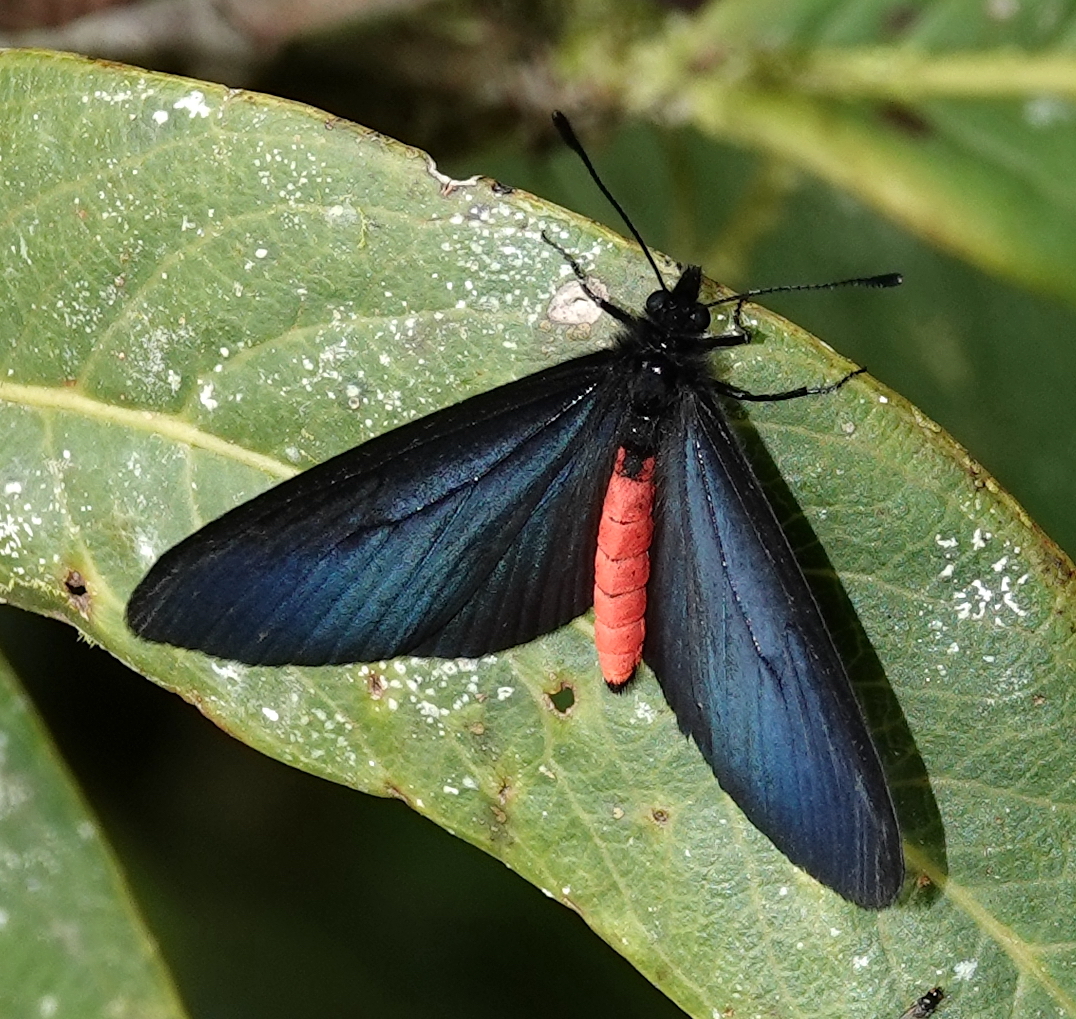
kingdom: Animalia
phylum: Arthropoda
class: Insecta
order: Lepidoptera
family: Nymphalidae
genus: Actinote
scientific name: Actinote neleus
